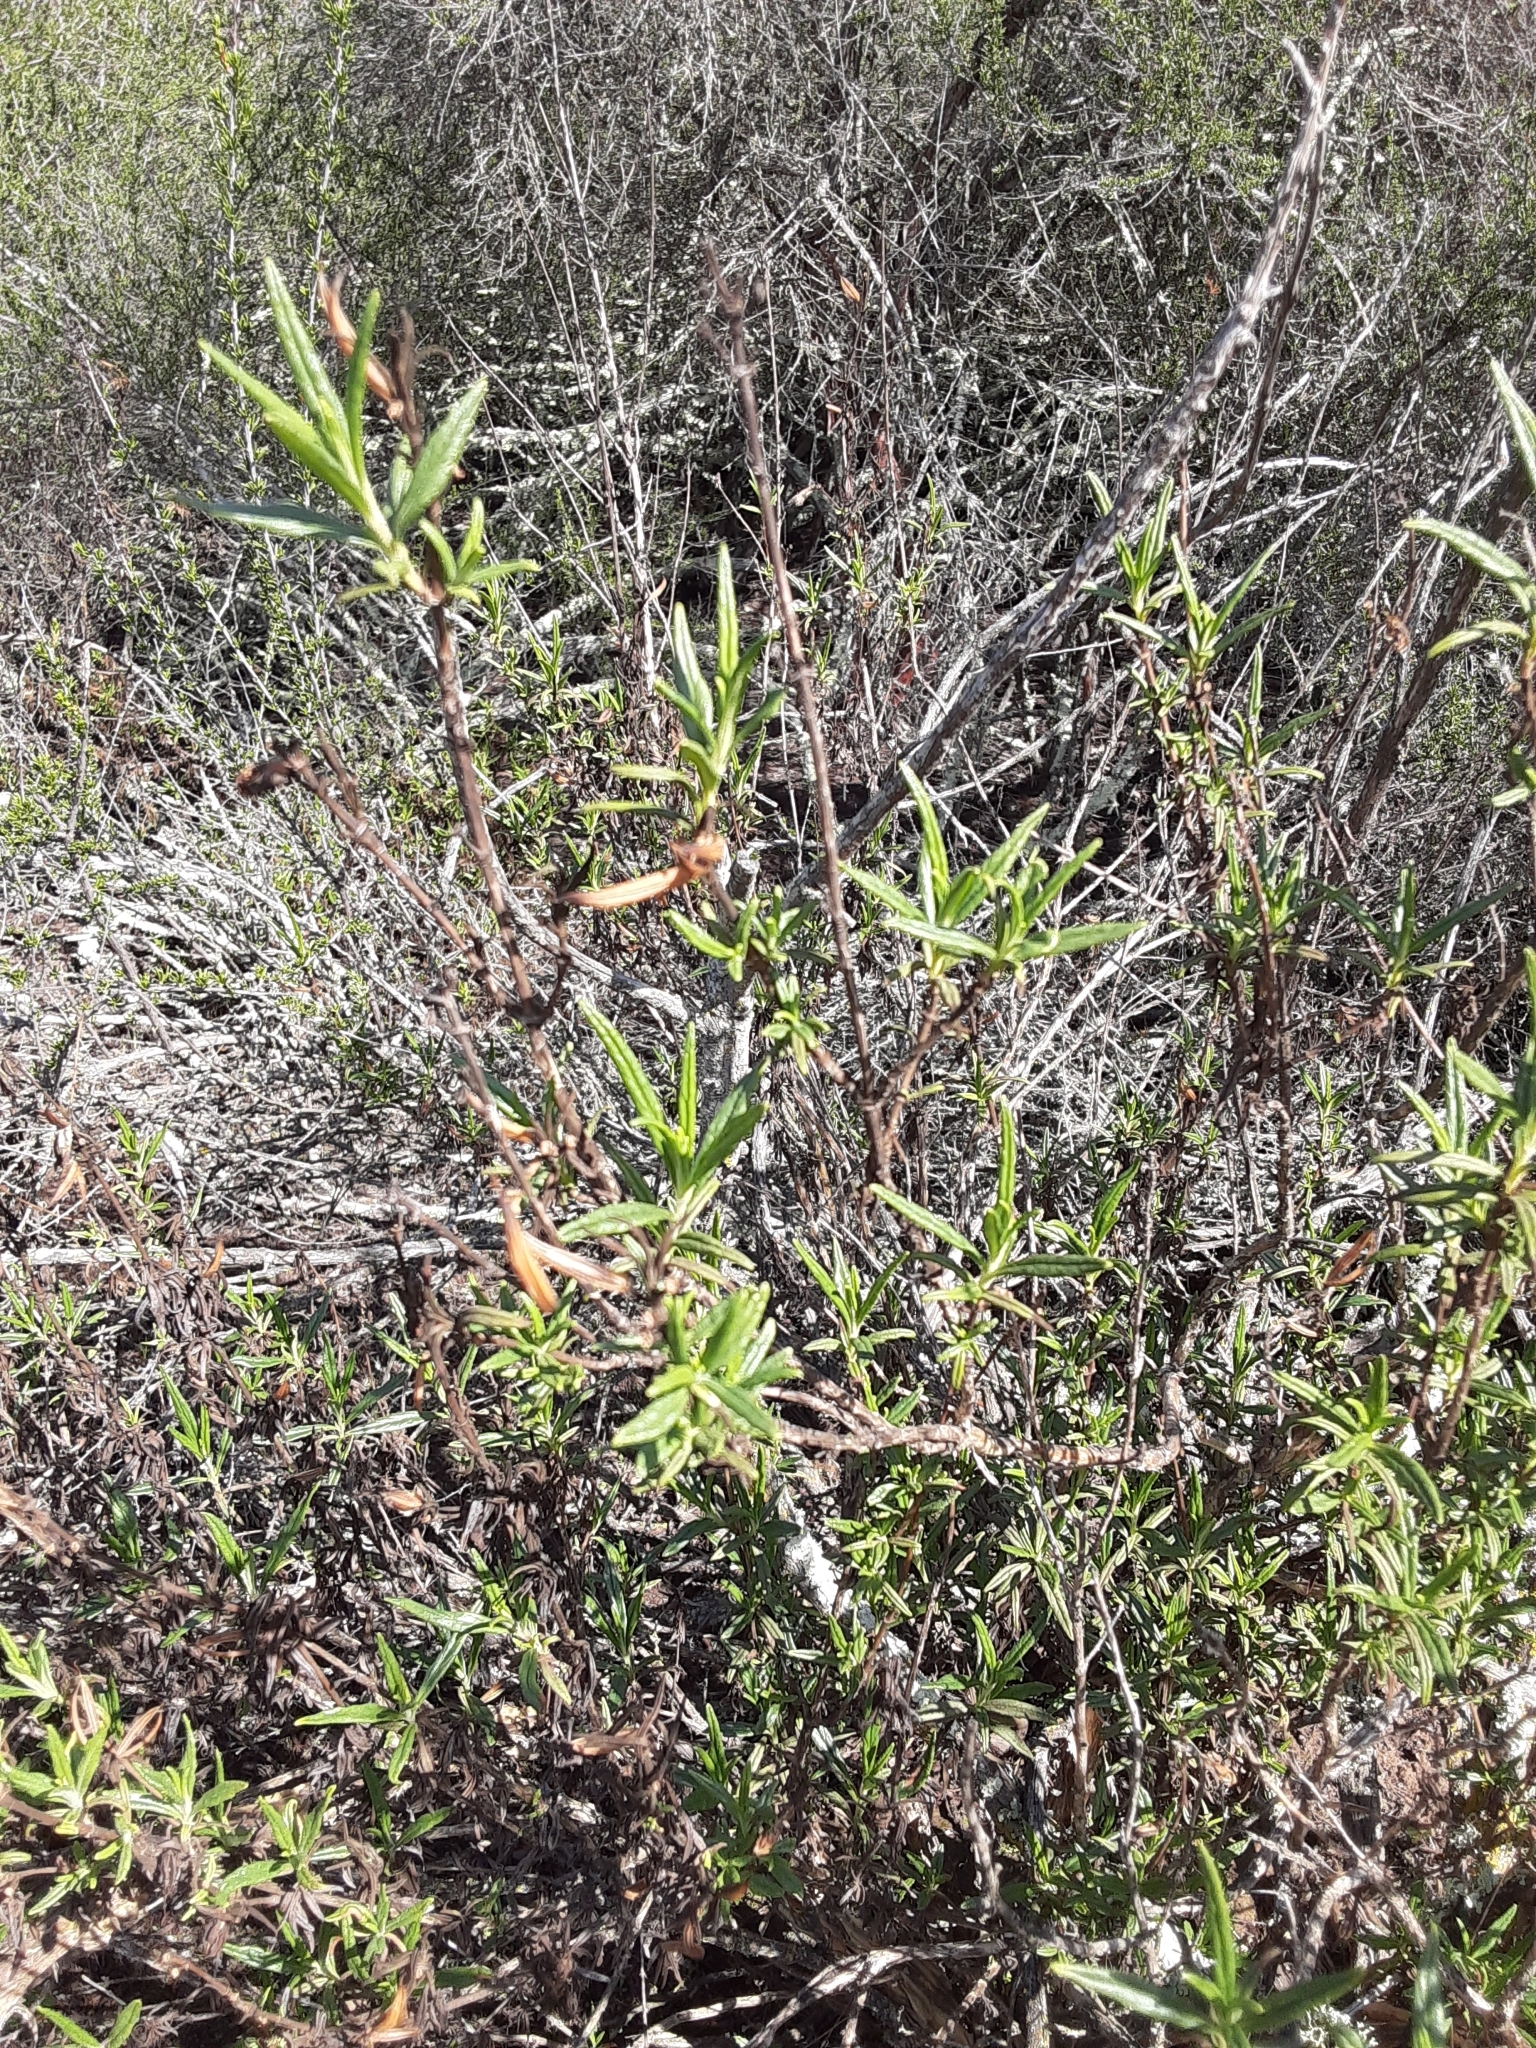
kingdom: Plantae
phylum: Tracheophyta
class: Magnoliopsida
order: Lamiales
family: Phrymaceae
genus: Diplacus
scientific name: Diplacus longiflorus
